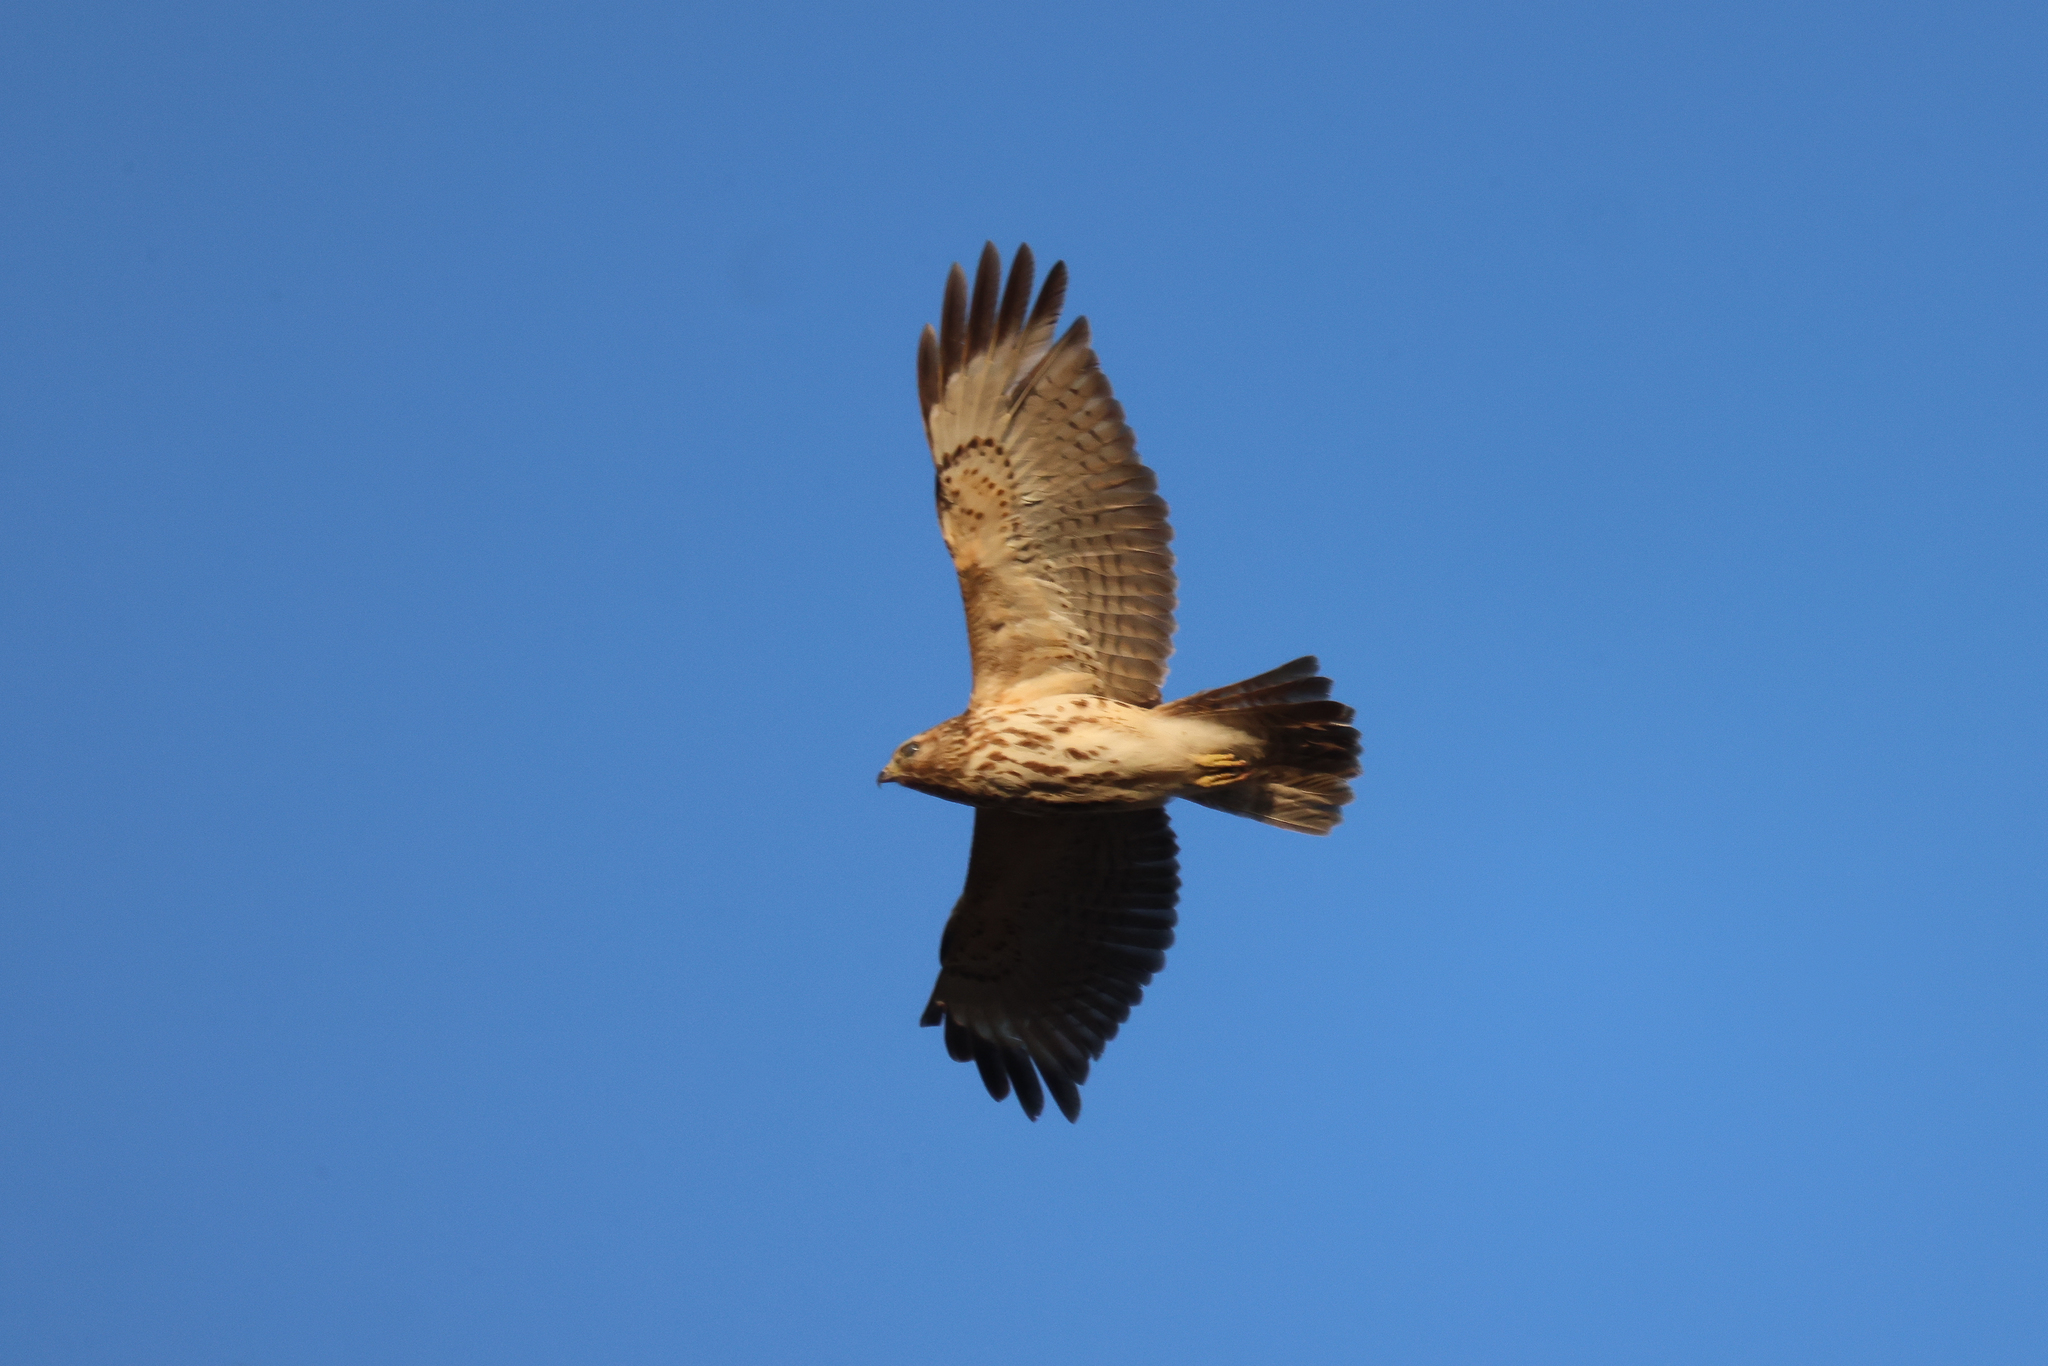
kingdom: Animalia
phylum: Chordata
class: Aves
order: Accipitriformes
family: Accipitridae
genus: Buteo
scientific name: Buteo lineatus
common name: Red-shouldered hawk
